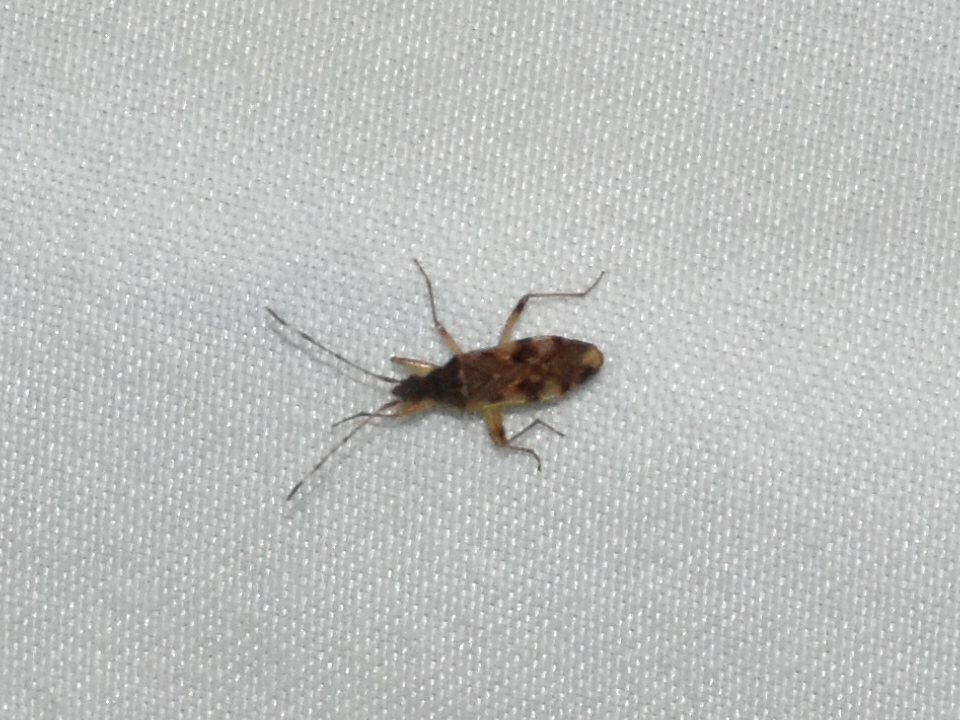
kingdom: Animalia
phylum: Arthropoda
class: Insecta
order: Hemiptera
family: Rhyparochromidae
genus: Ozophora
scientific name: Ozophora picturata
